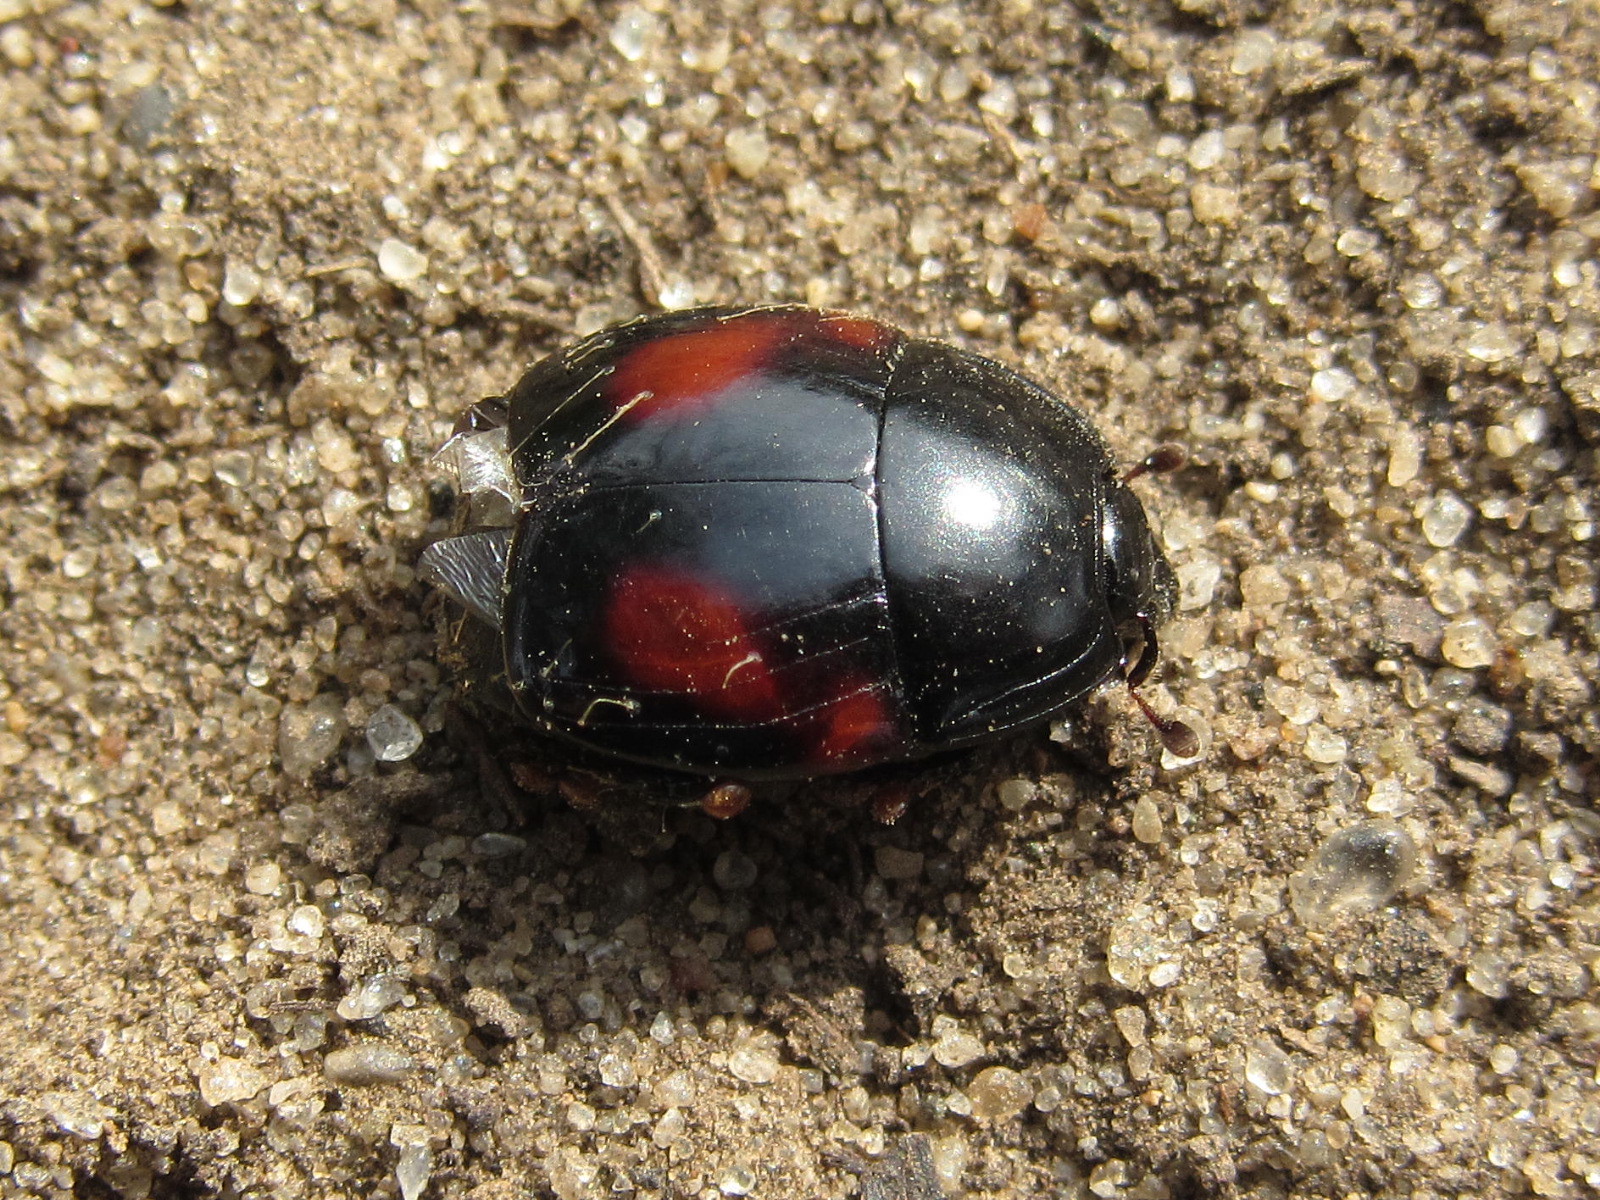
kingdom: Animalia
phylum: Arthropoda
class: Insecta
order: Coleoptera
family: Histeridae
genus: Hister
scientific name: Hister quadrinotatus
